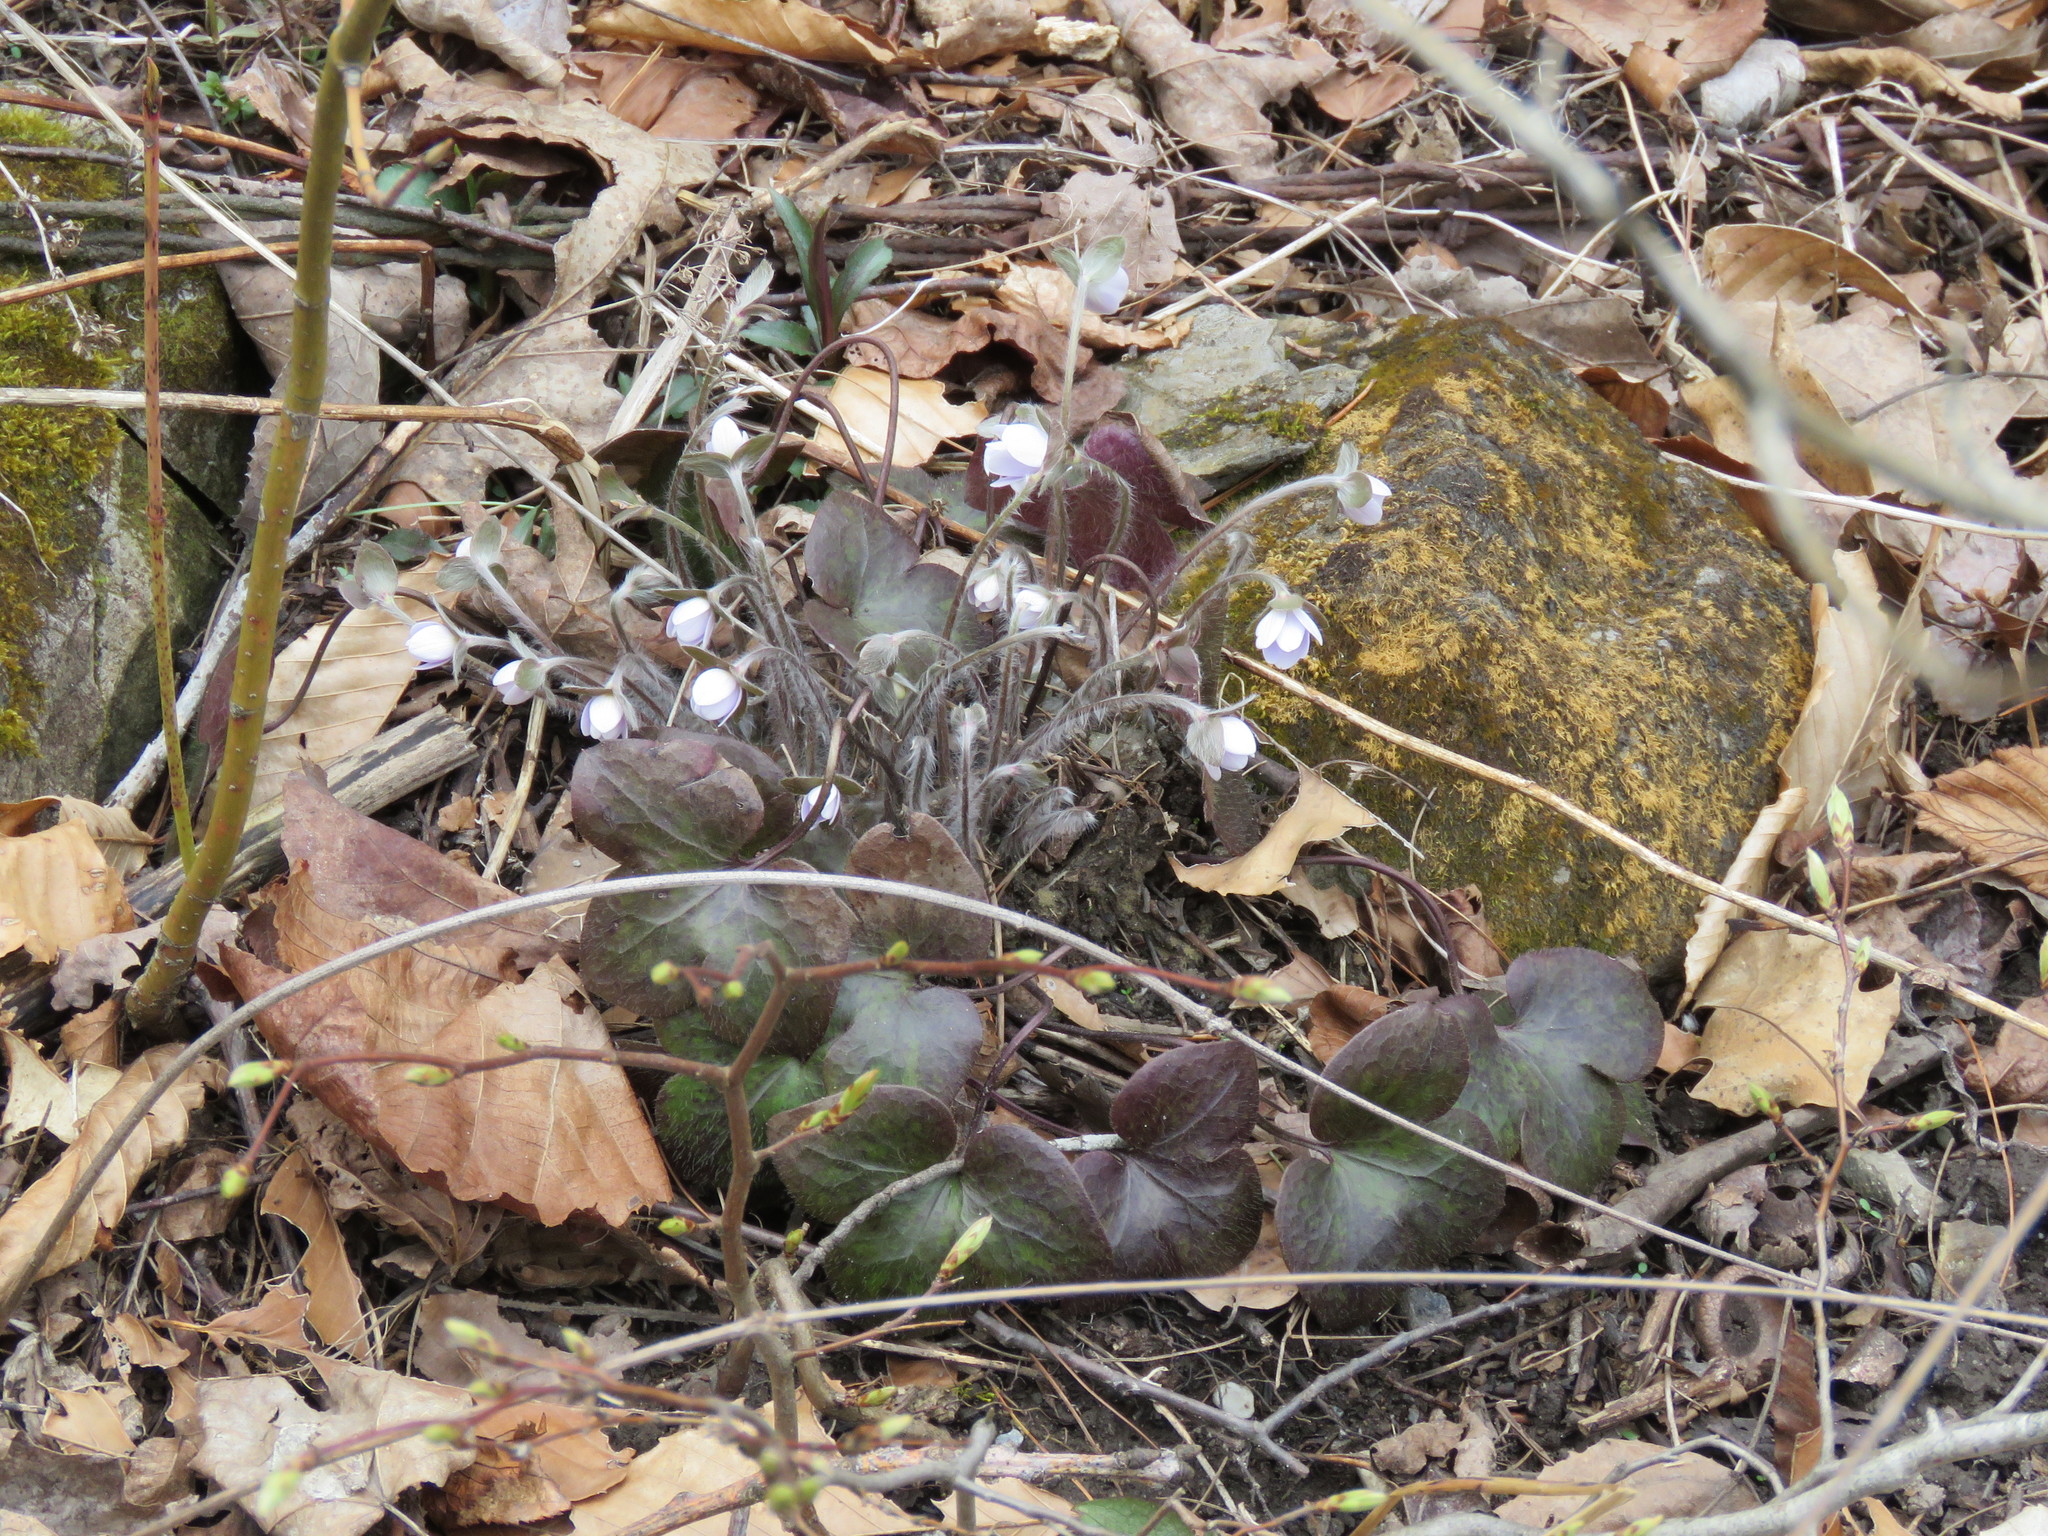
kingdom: Plantae
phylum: Tracheophyta
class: Magnoliopsida
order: Ranunculales
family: Ranunculaceae
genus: Hepatica
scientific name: Hepatica americana
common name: American hepatica
